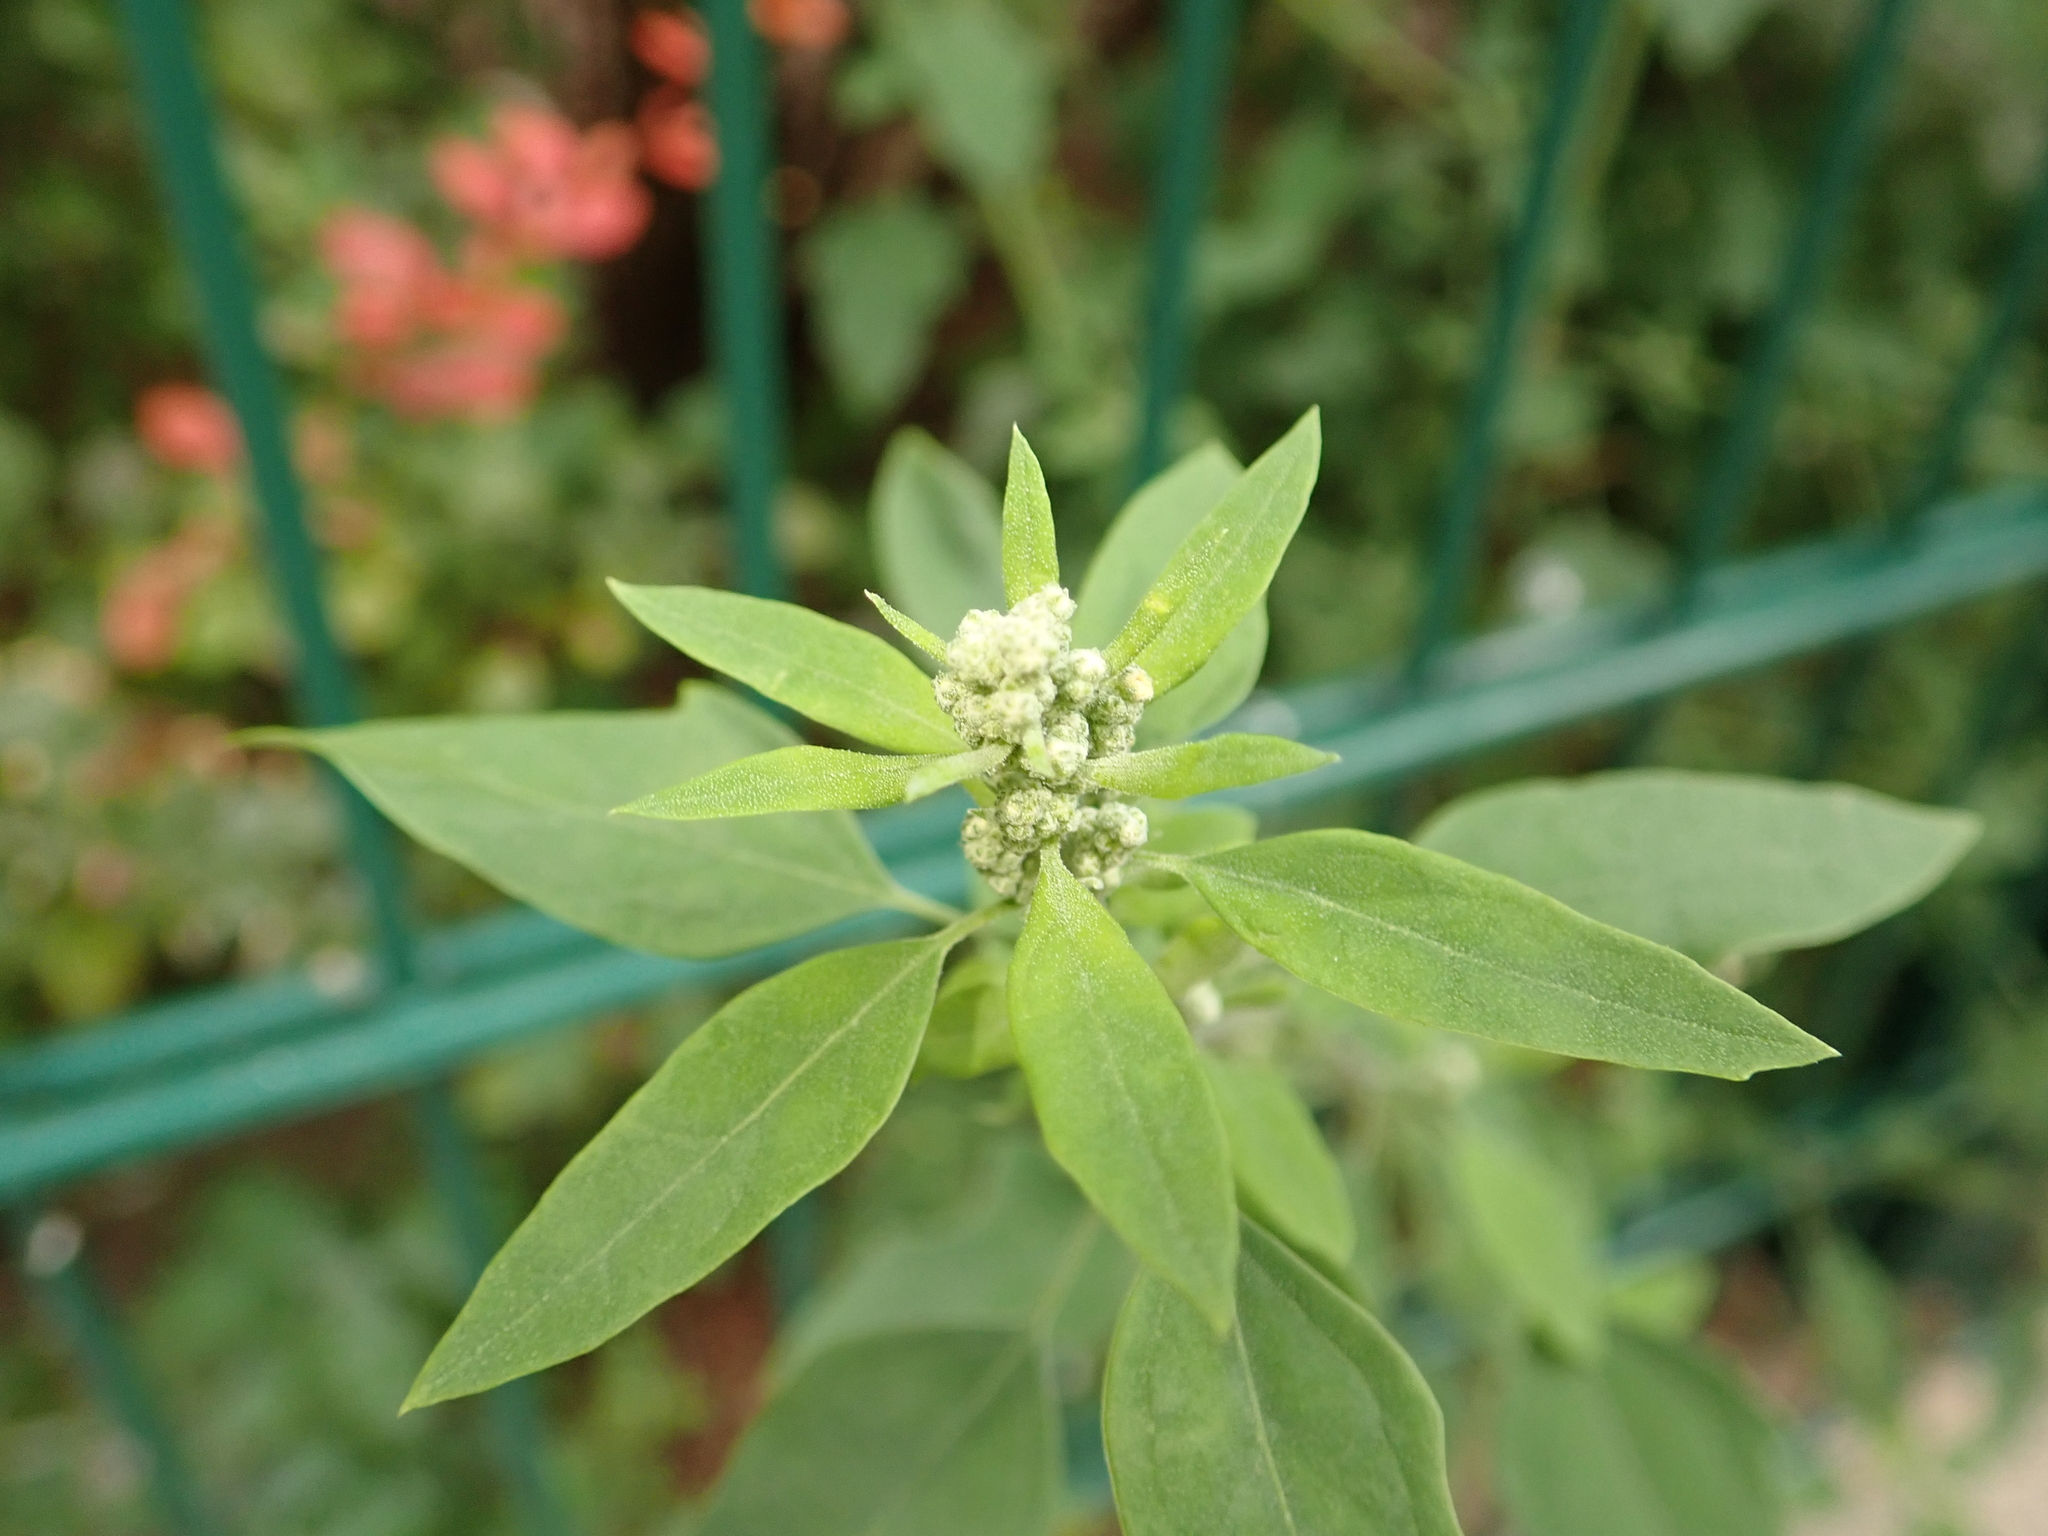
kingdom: Plantae
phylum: Tracheophyta
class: Magnoliopsida
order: Caryophyllales
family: Amaranthaceae
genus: Chenopodium
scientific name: Chenopodium album
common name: Fat-hen
